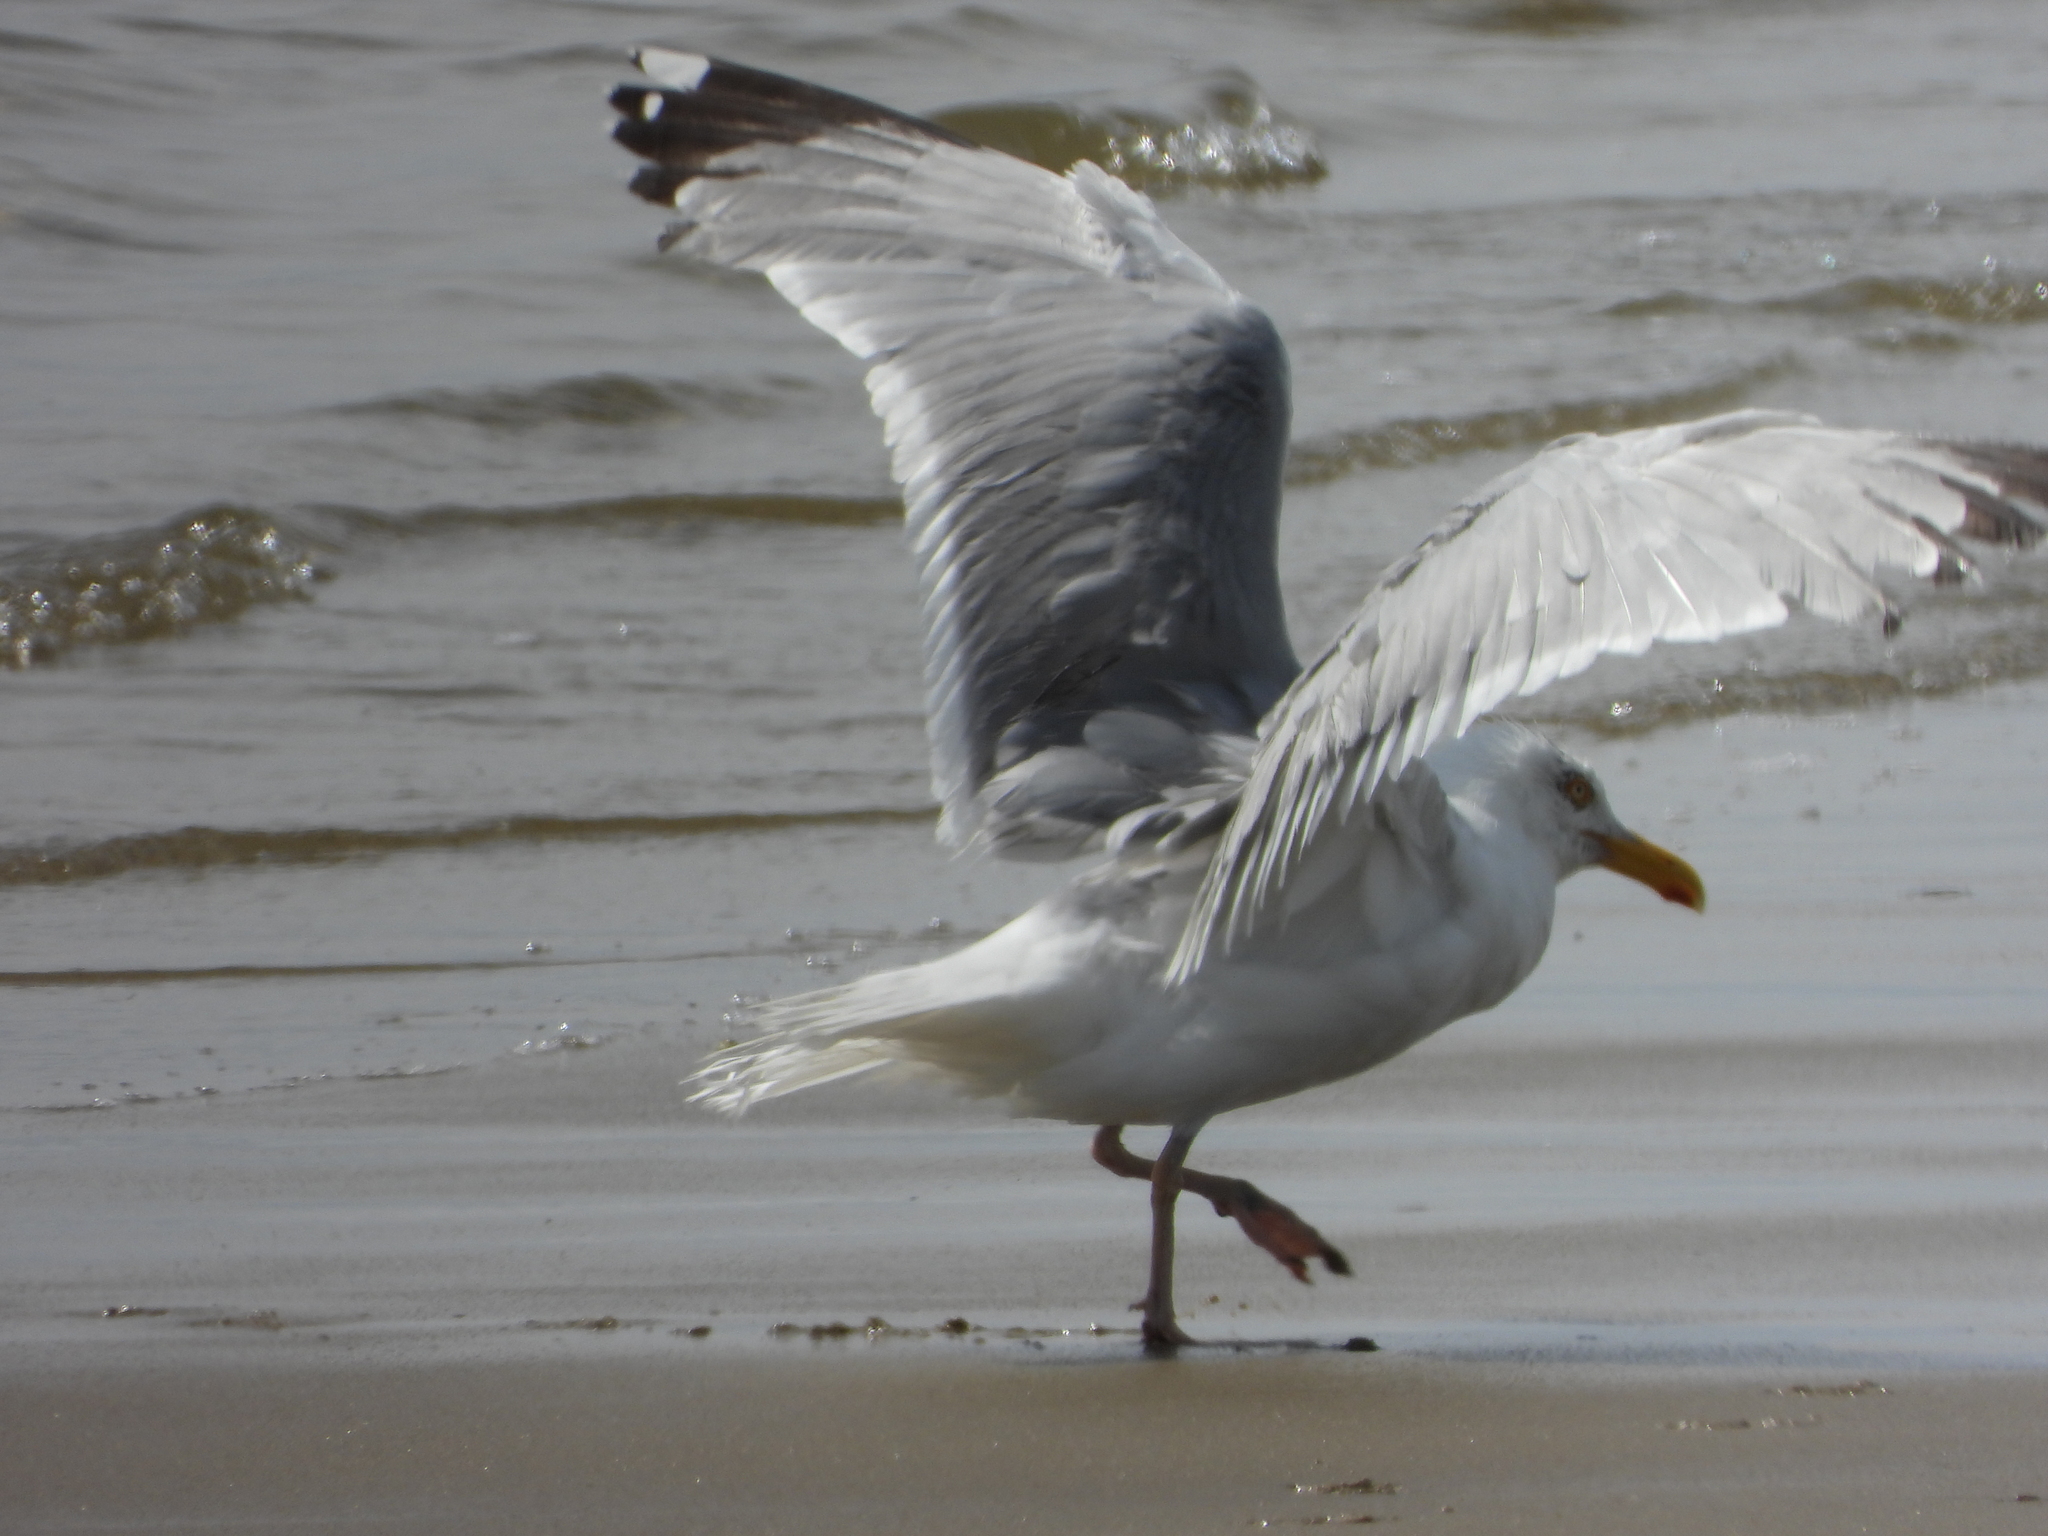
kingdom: Animalia
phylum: Chordata
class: Aves
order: Charadriiformes
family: Laridae
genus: Larus
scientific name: Larus argentatus
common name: Herring gull
